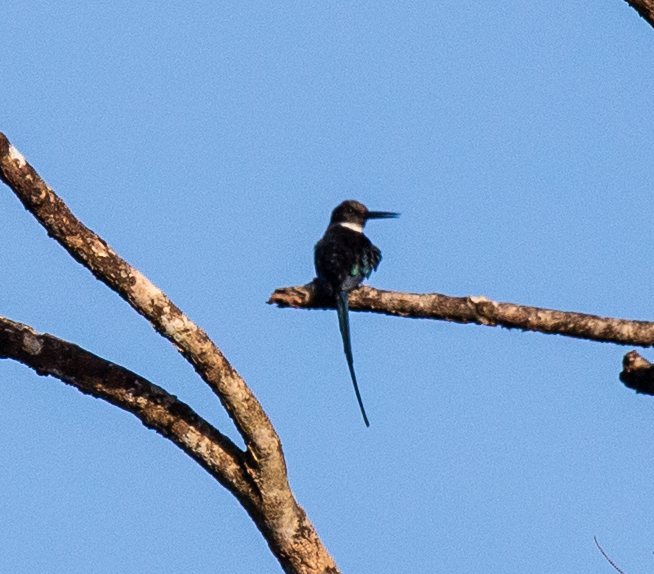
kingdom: Animalia
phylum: Chordata
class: Aves
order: Piciformes
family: Galbulidae
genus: Galbula
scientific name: Galbula dea
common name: Paradise jacamar
